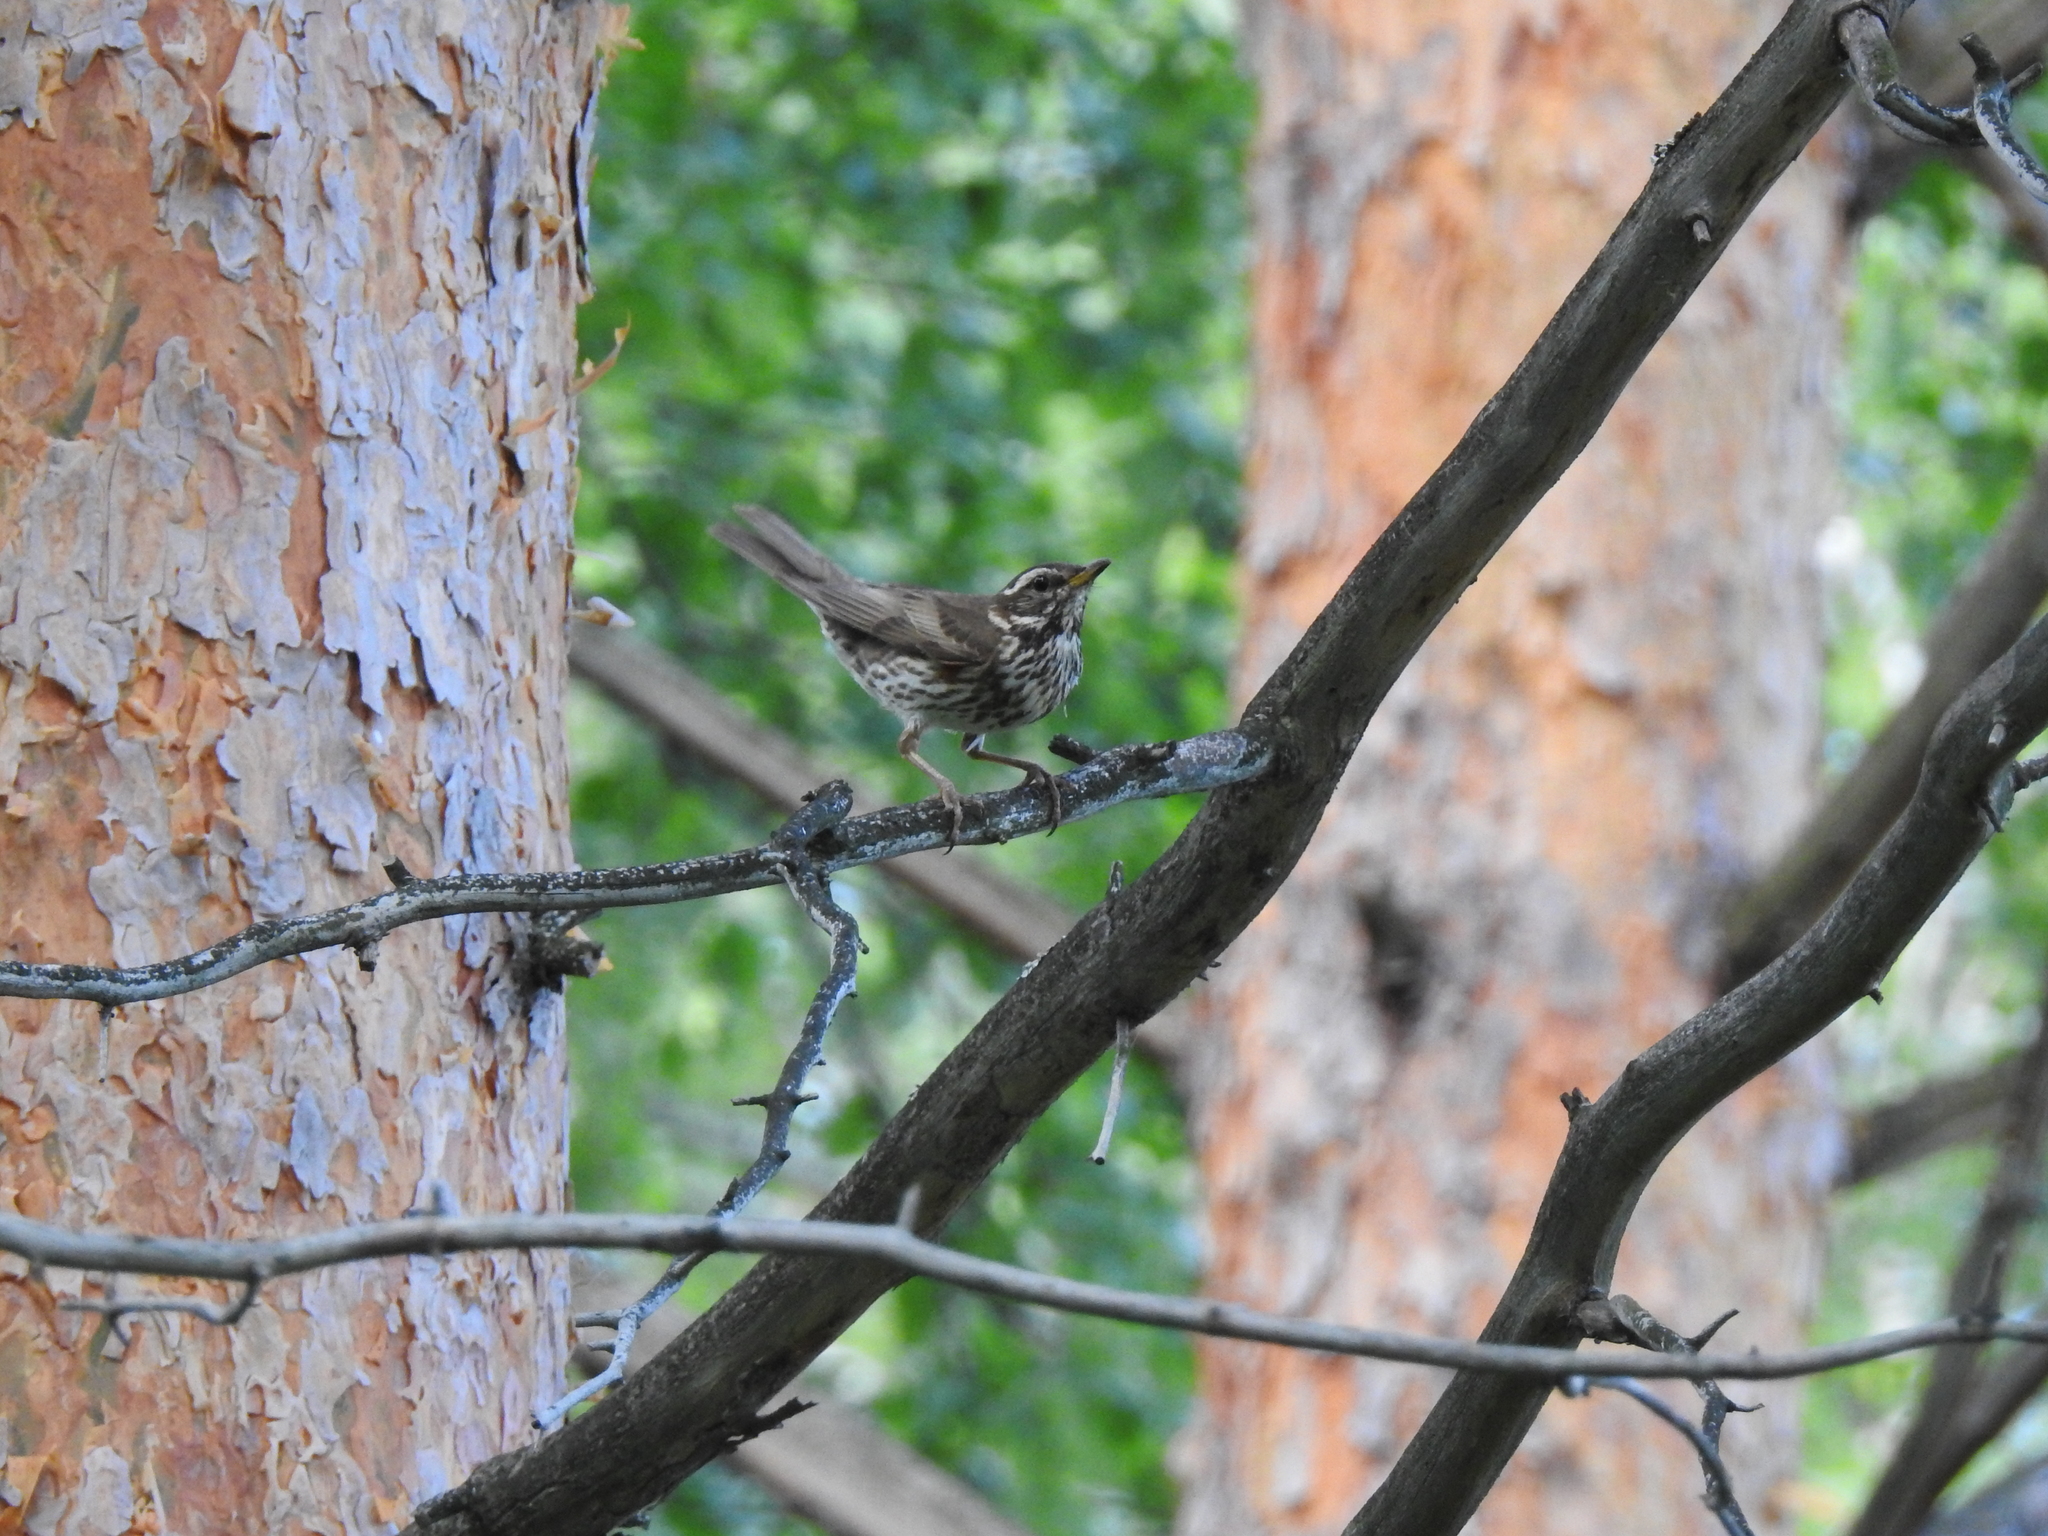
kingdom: Animalia
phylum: Chordata
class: Aves
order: Passeriformes
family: Turdidae
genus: Turdus
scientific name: Turdus iliacus
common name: Redwing
